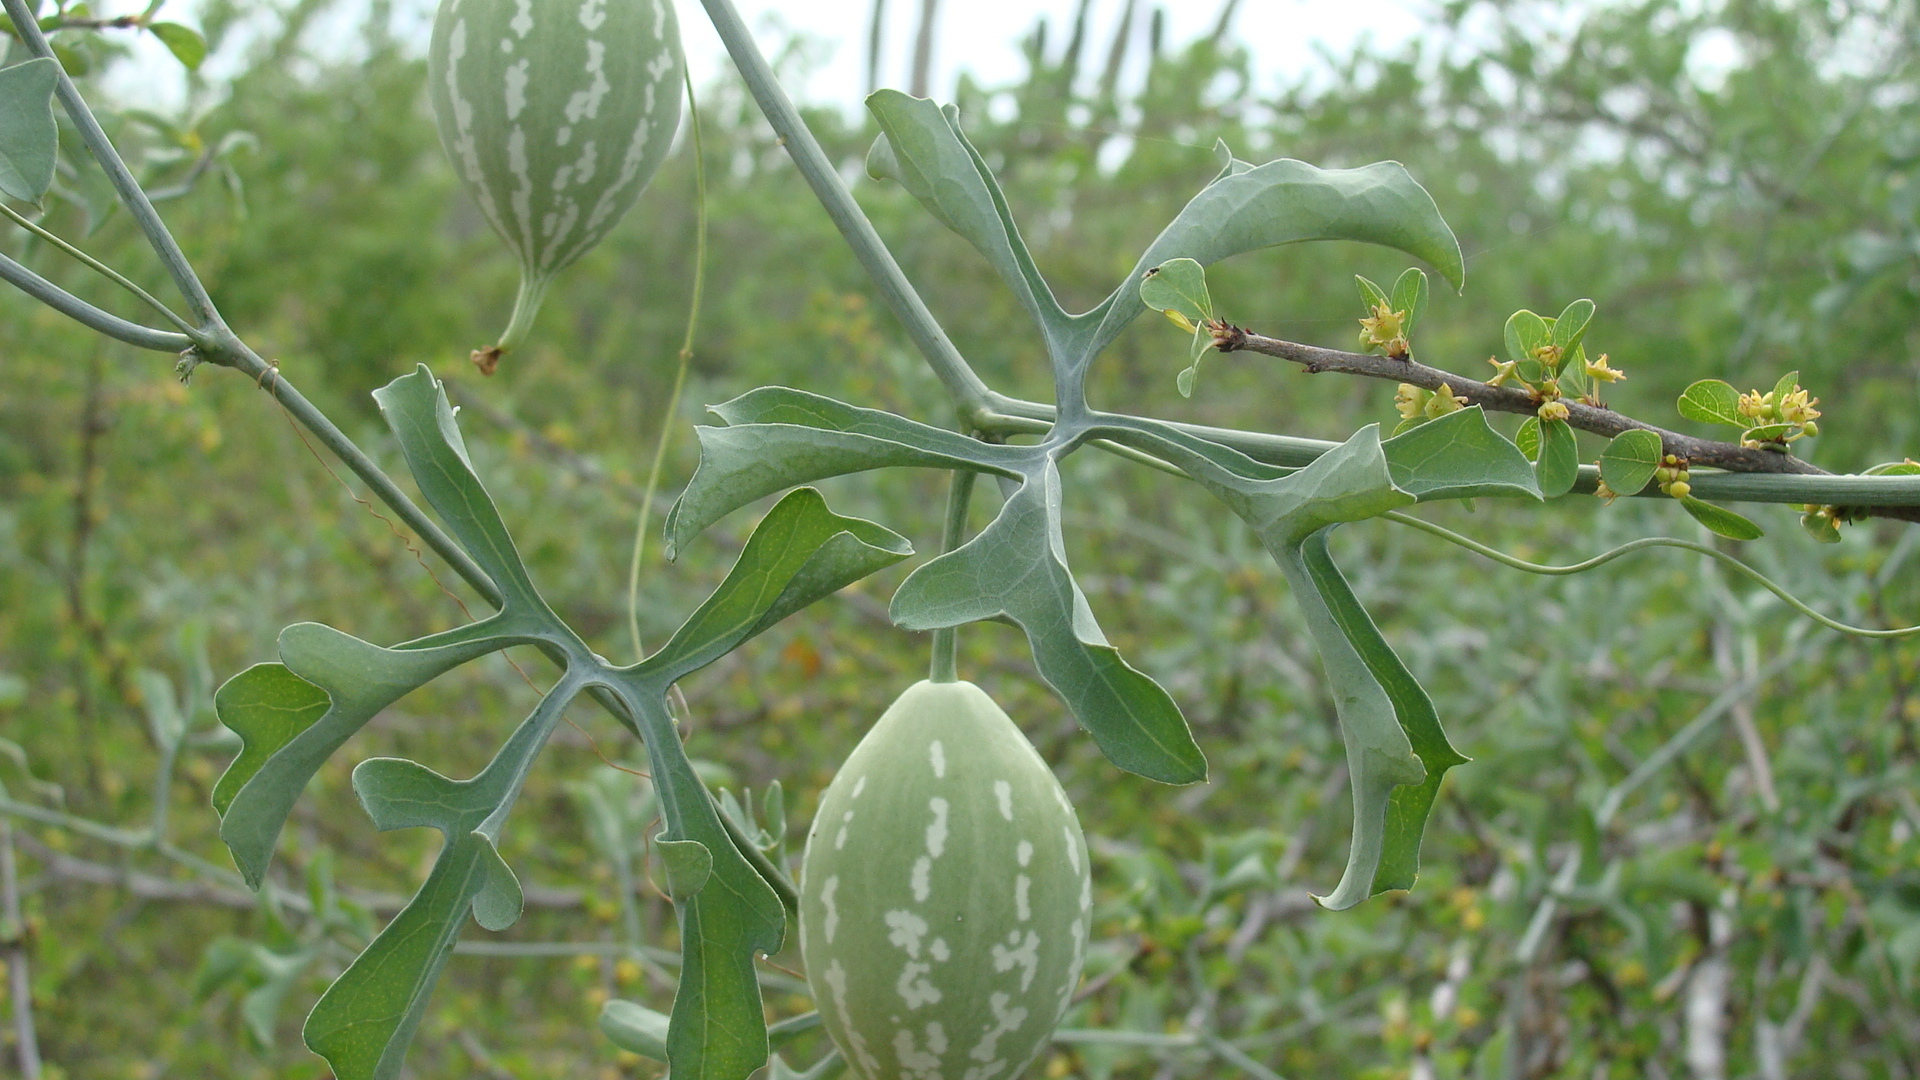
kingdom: Plantae
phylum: Tracheophyta
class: Magnoliopsida
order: Cucurbitales
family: Cucurbitaceae
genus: Ibervillea
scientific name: Ibervillea sonorae
